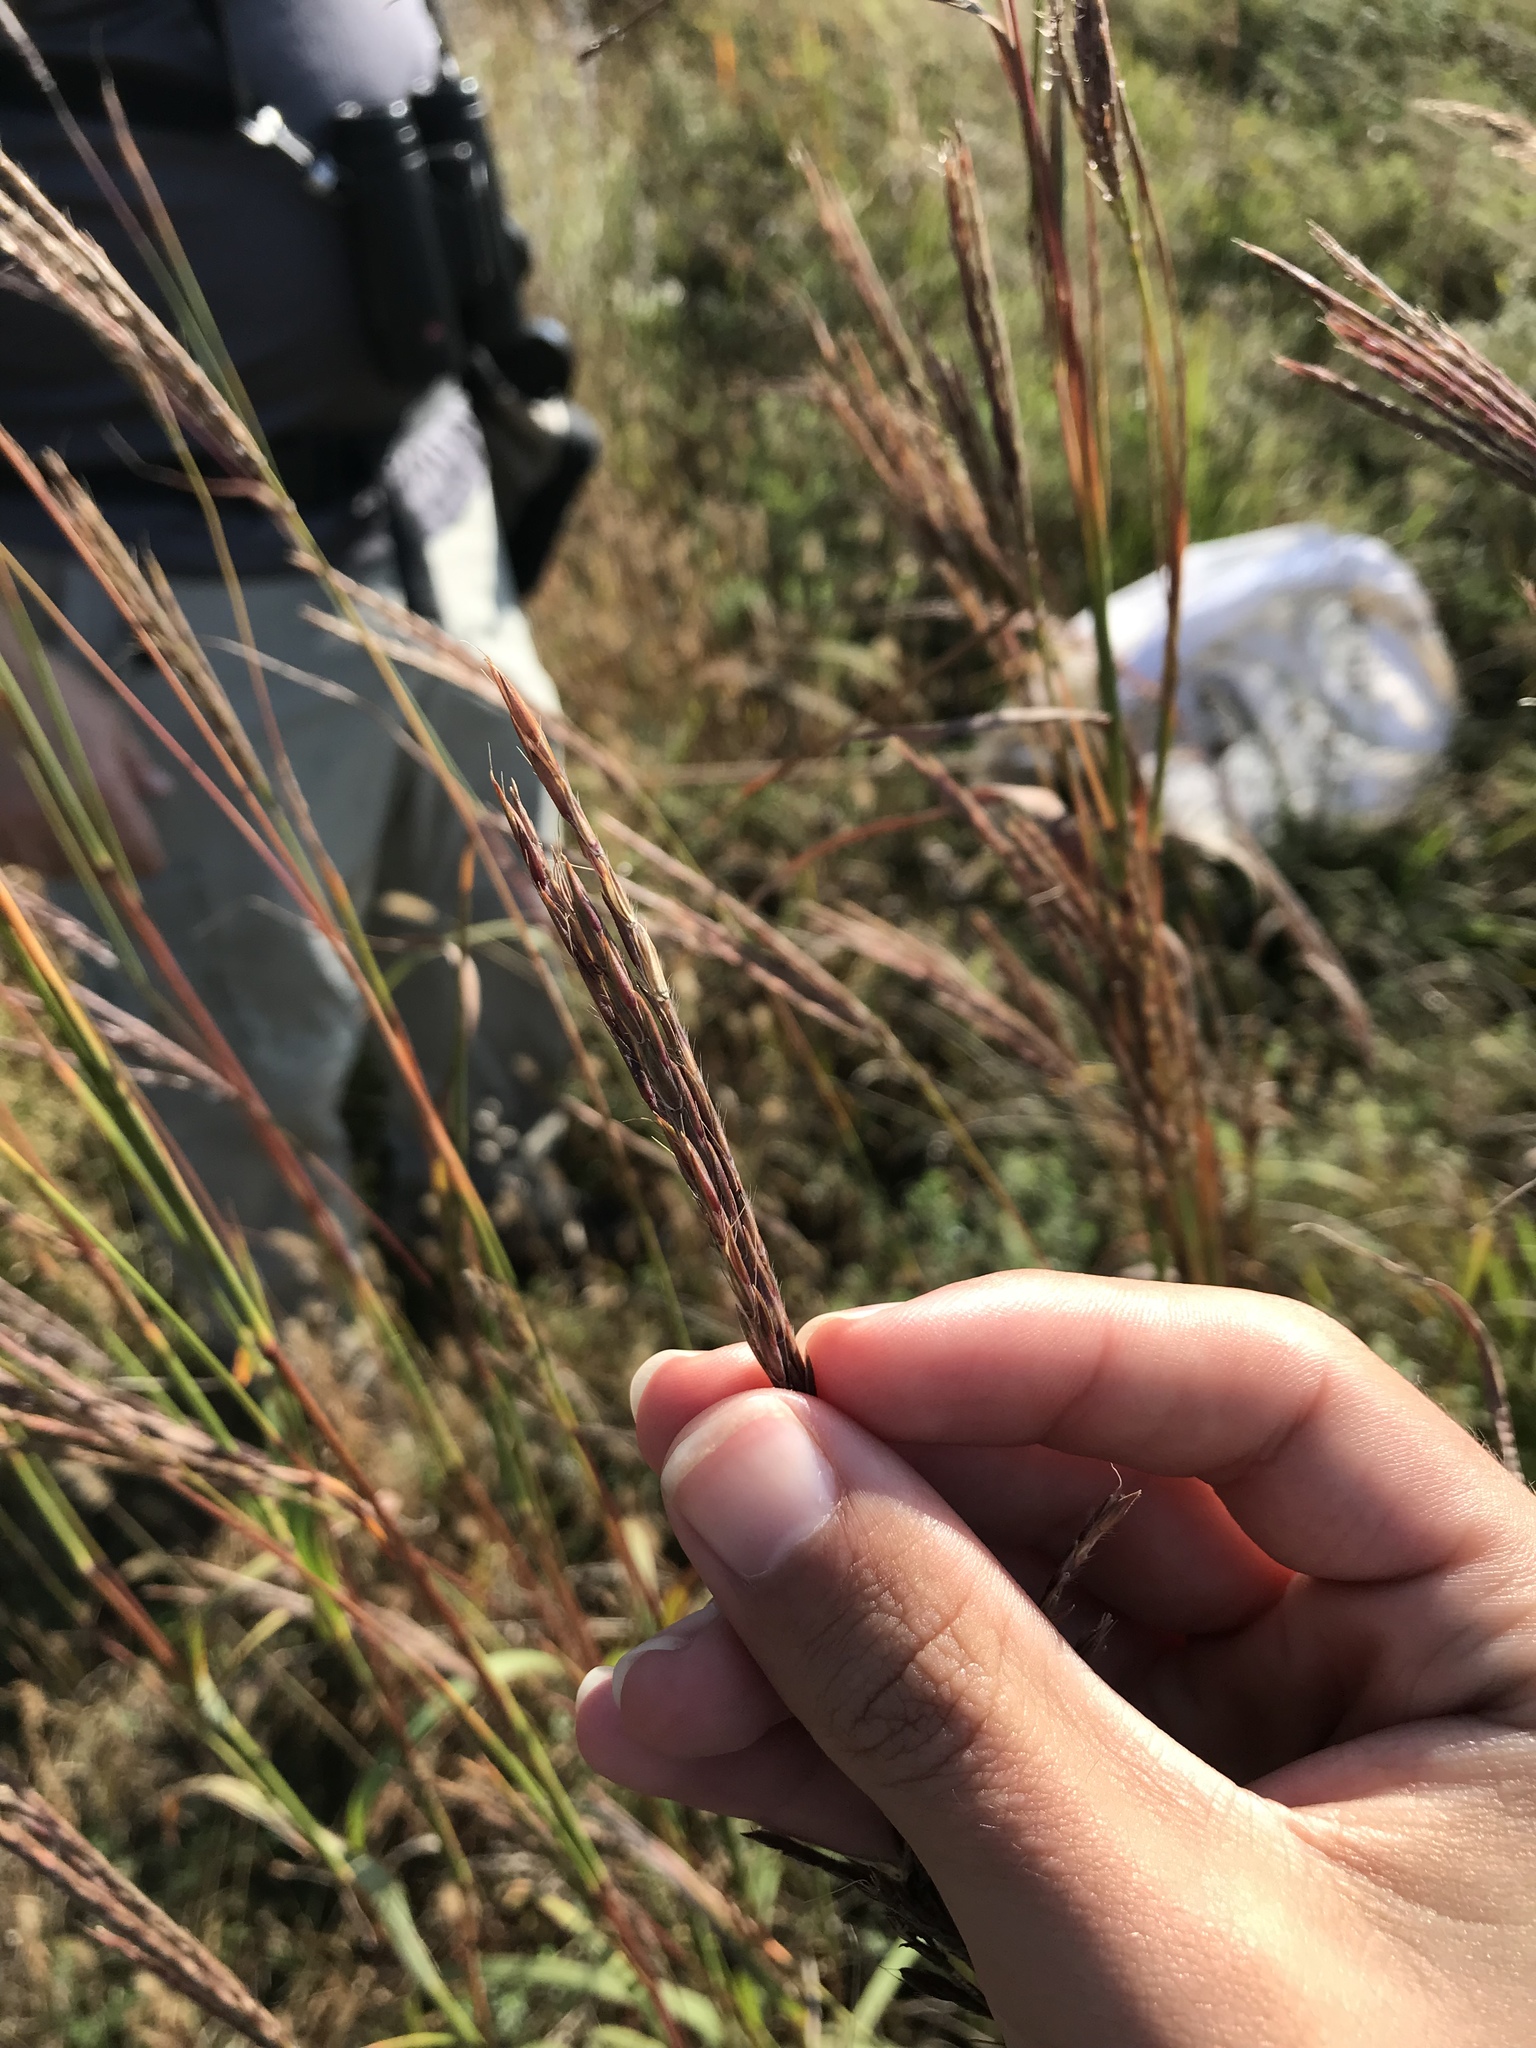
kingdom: Plantae
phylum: Tracheophyta
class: Liliopsida
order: Poales
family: Poaceae
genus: Andropogon
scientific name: Andropogon gerardi
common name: Big bluestem
